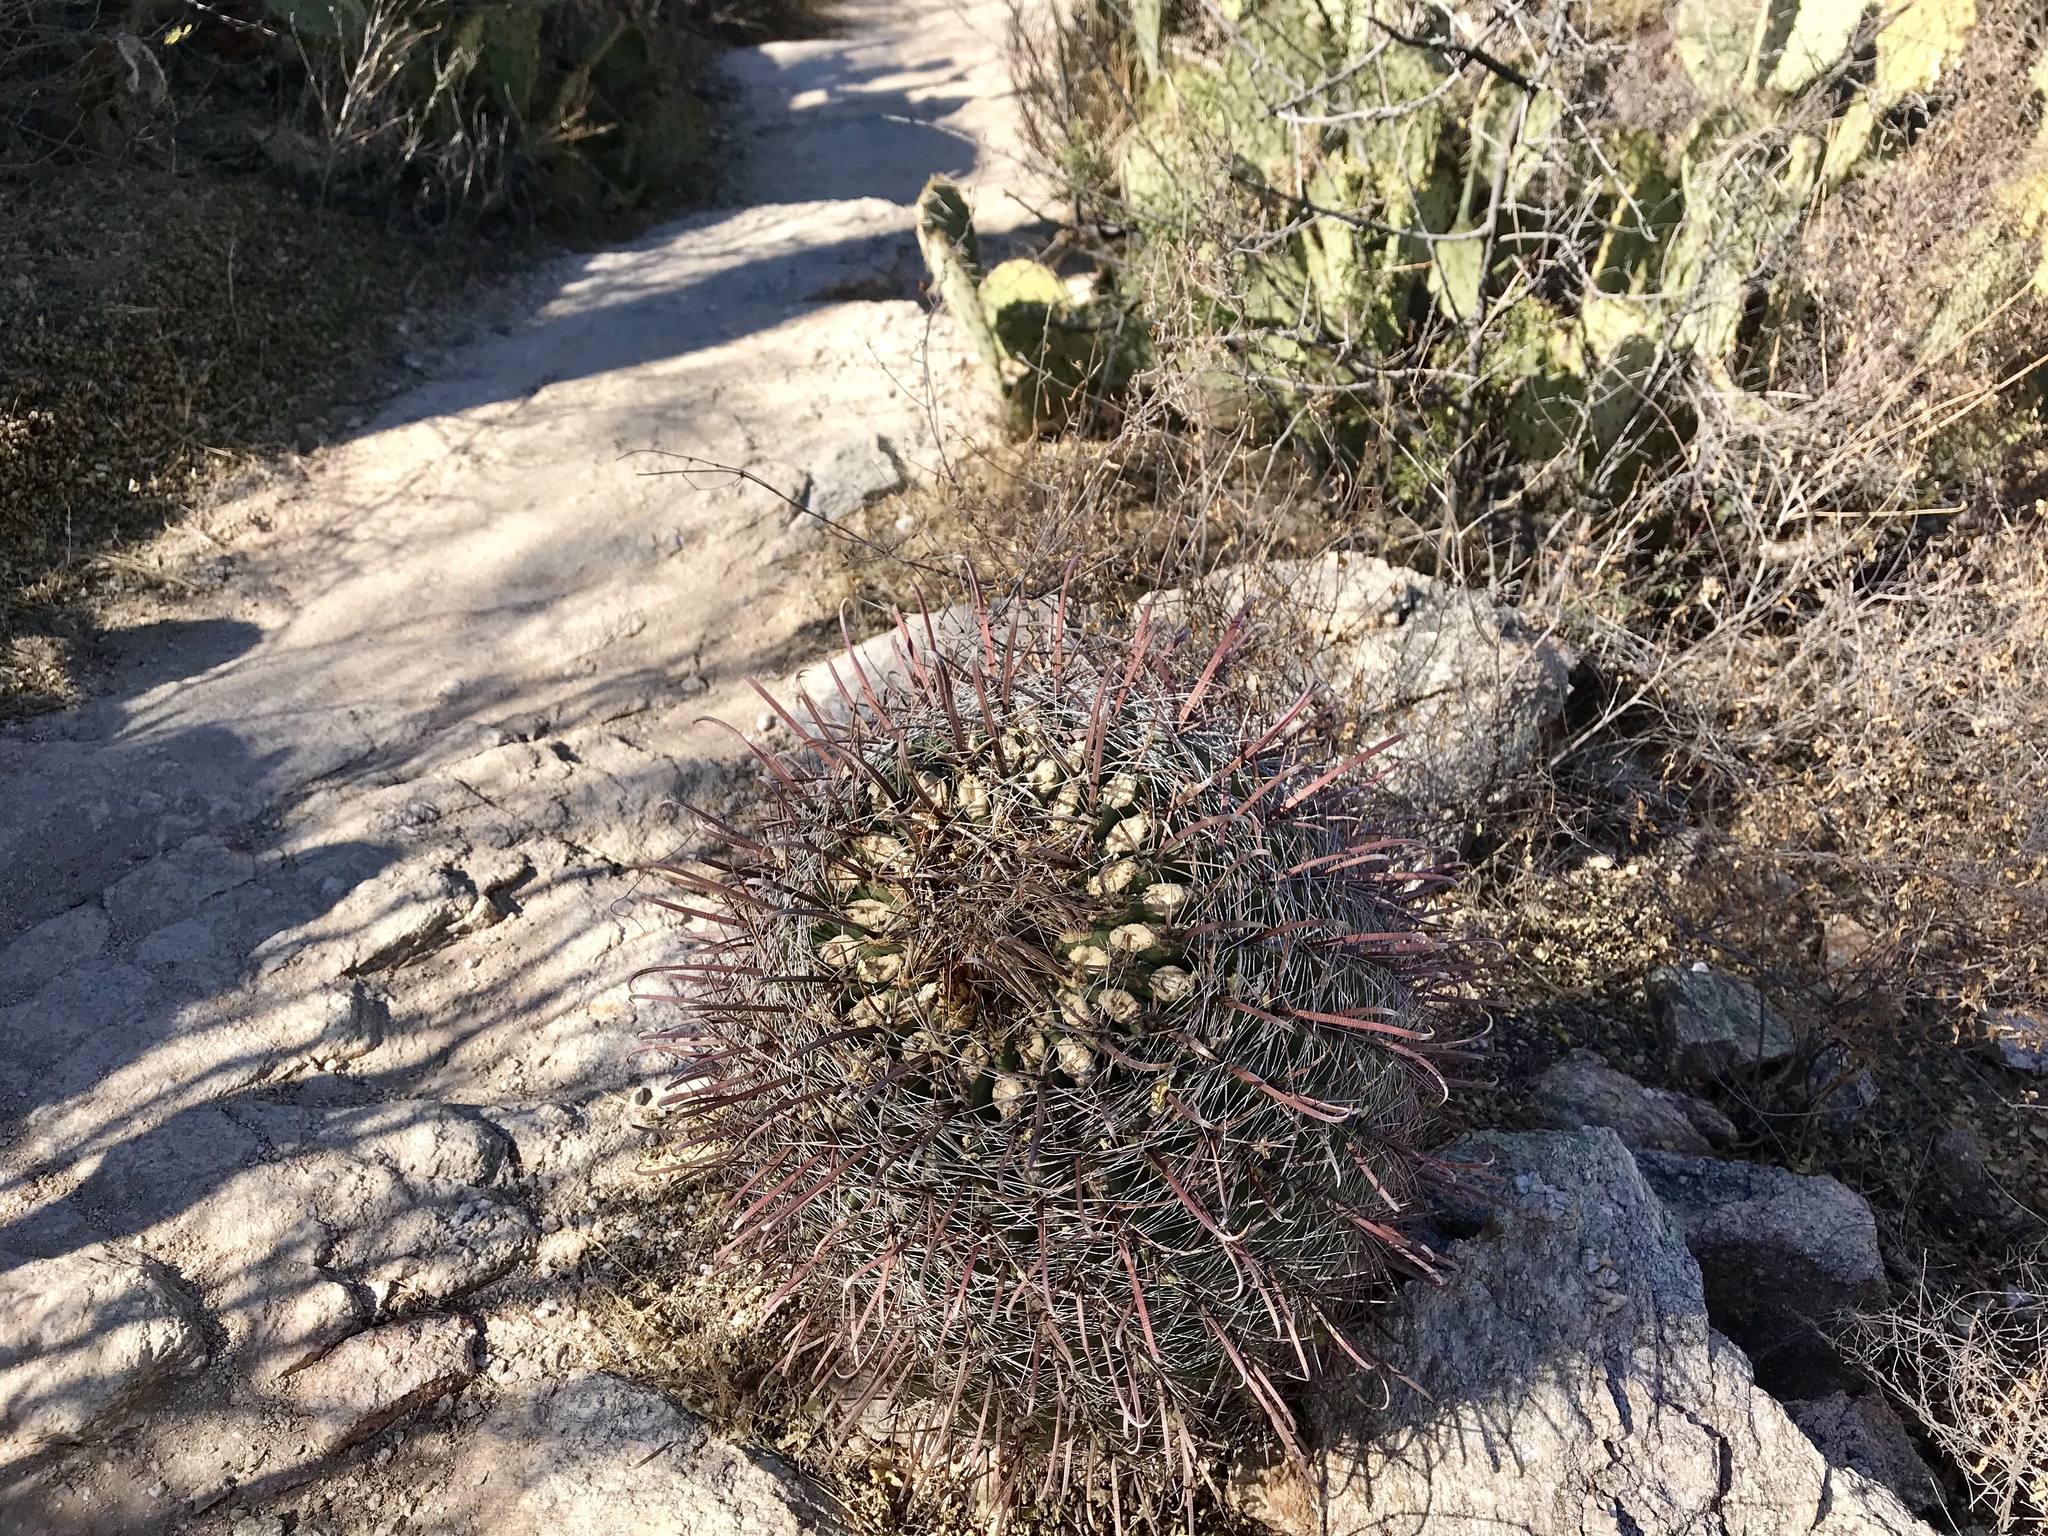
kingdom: Plantae
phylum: Tracheophyta
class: Magnoliopsida
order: Caryophyllales
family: Cactaceae
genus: Ferocactus
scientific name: Ferocactus wislizeni
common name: Candy barrel cactus
